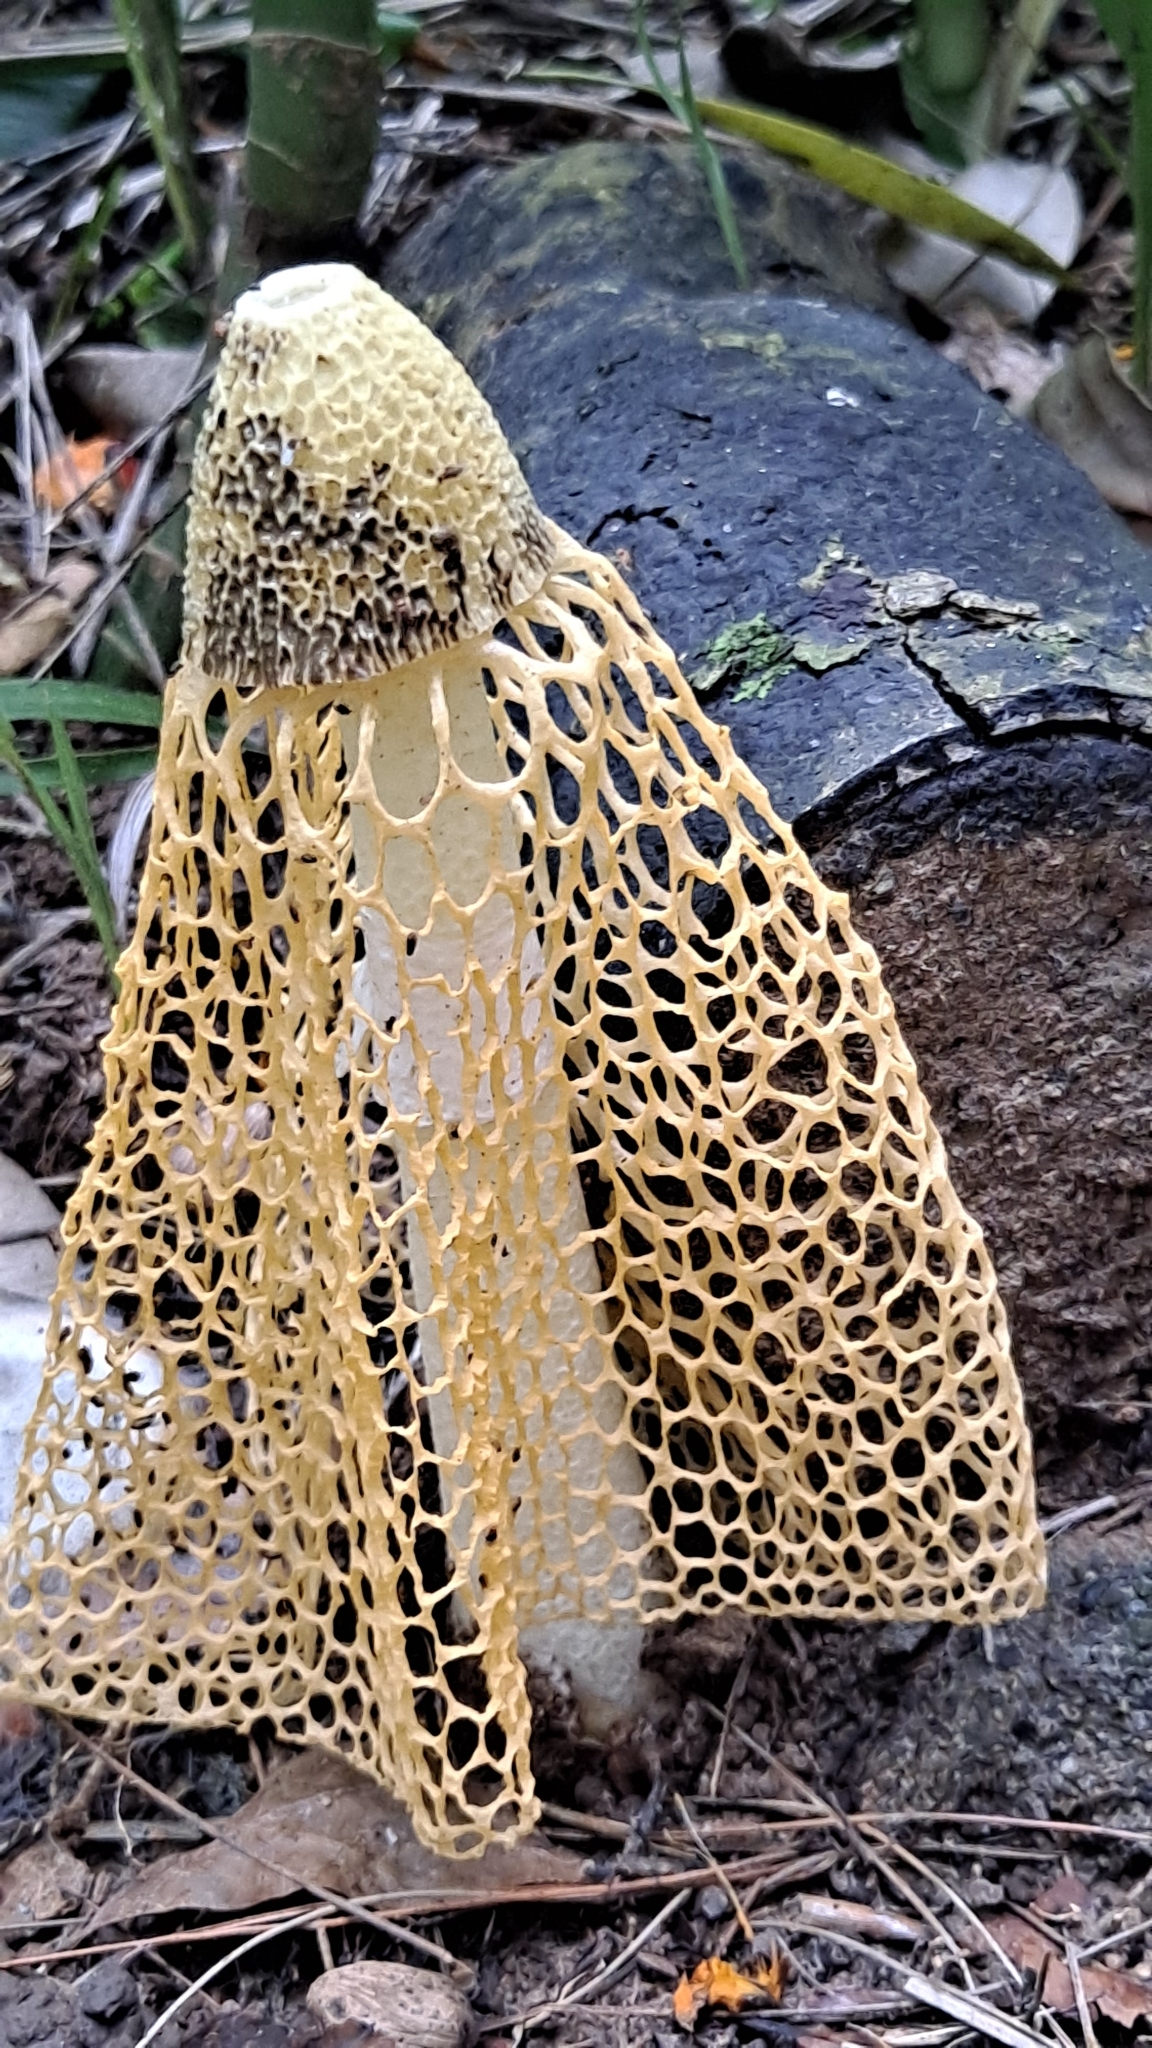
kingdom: Fungi
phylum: Basidiomycota
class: Agaricomycetes
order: Phallales
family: Phallaceae
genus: Phallus
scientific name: Phallus luteus
